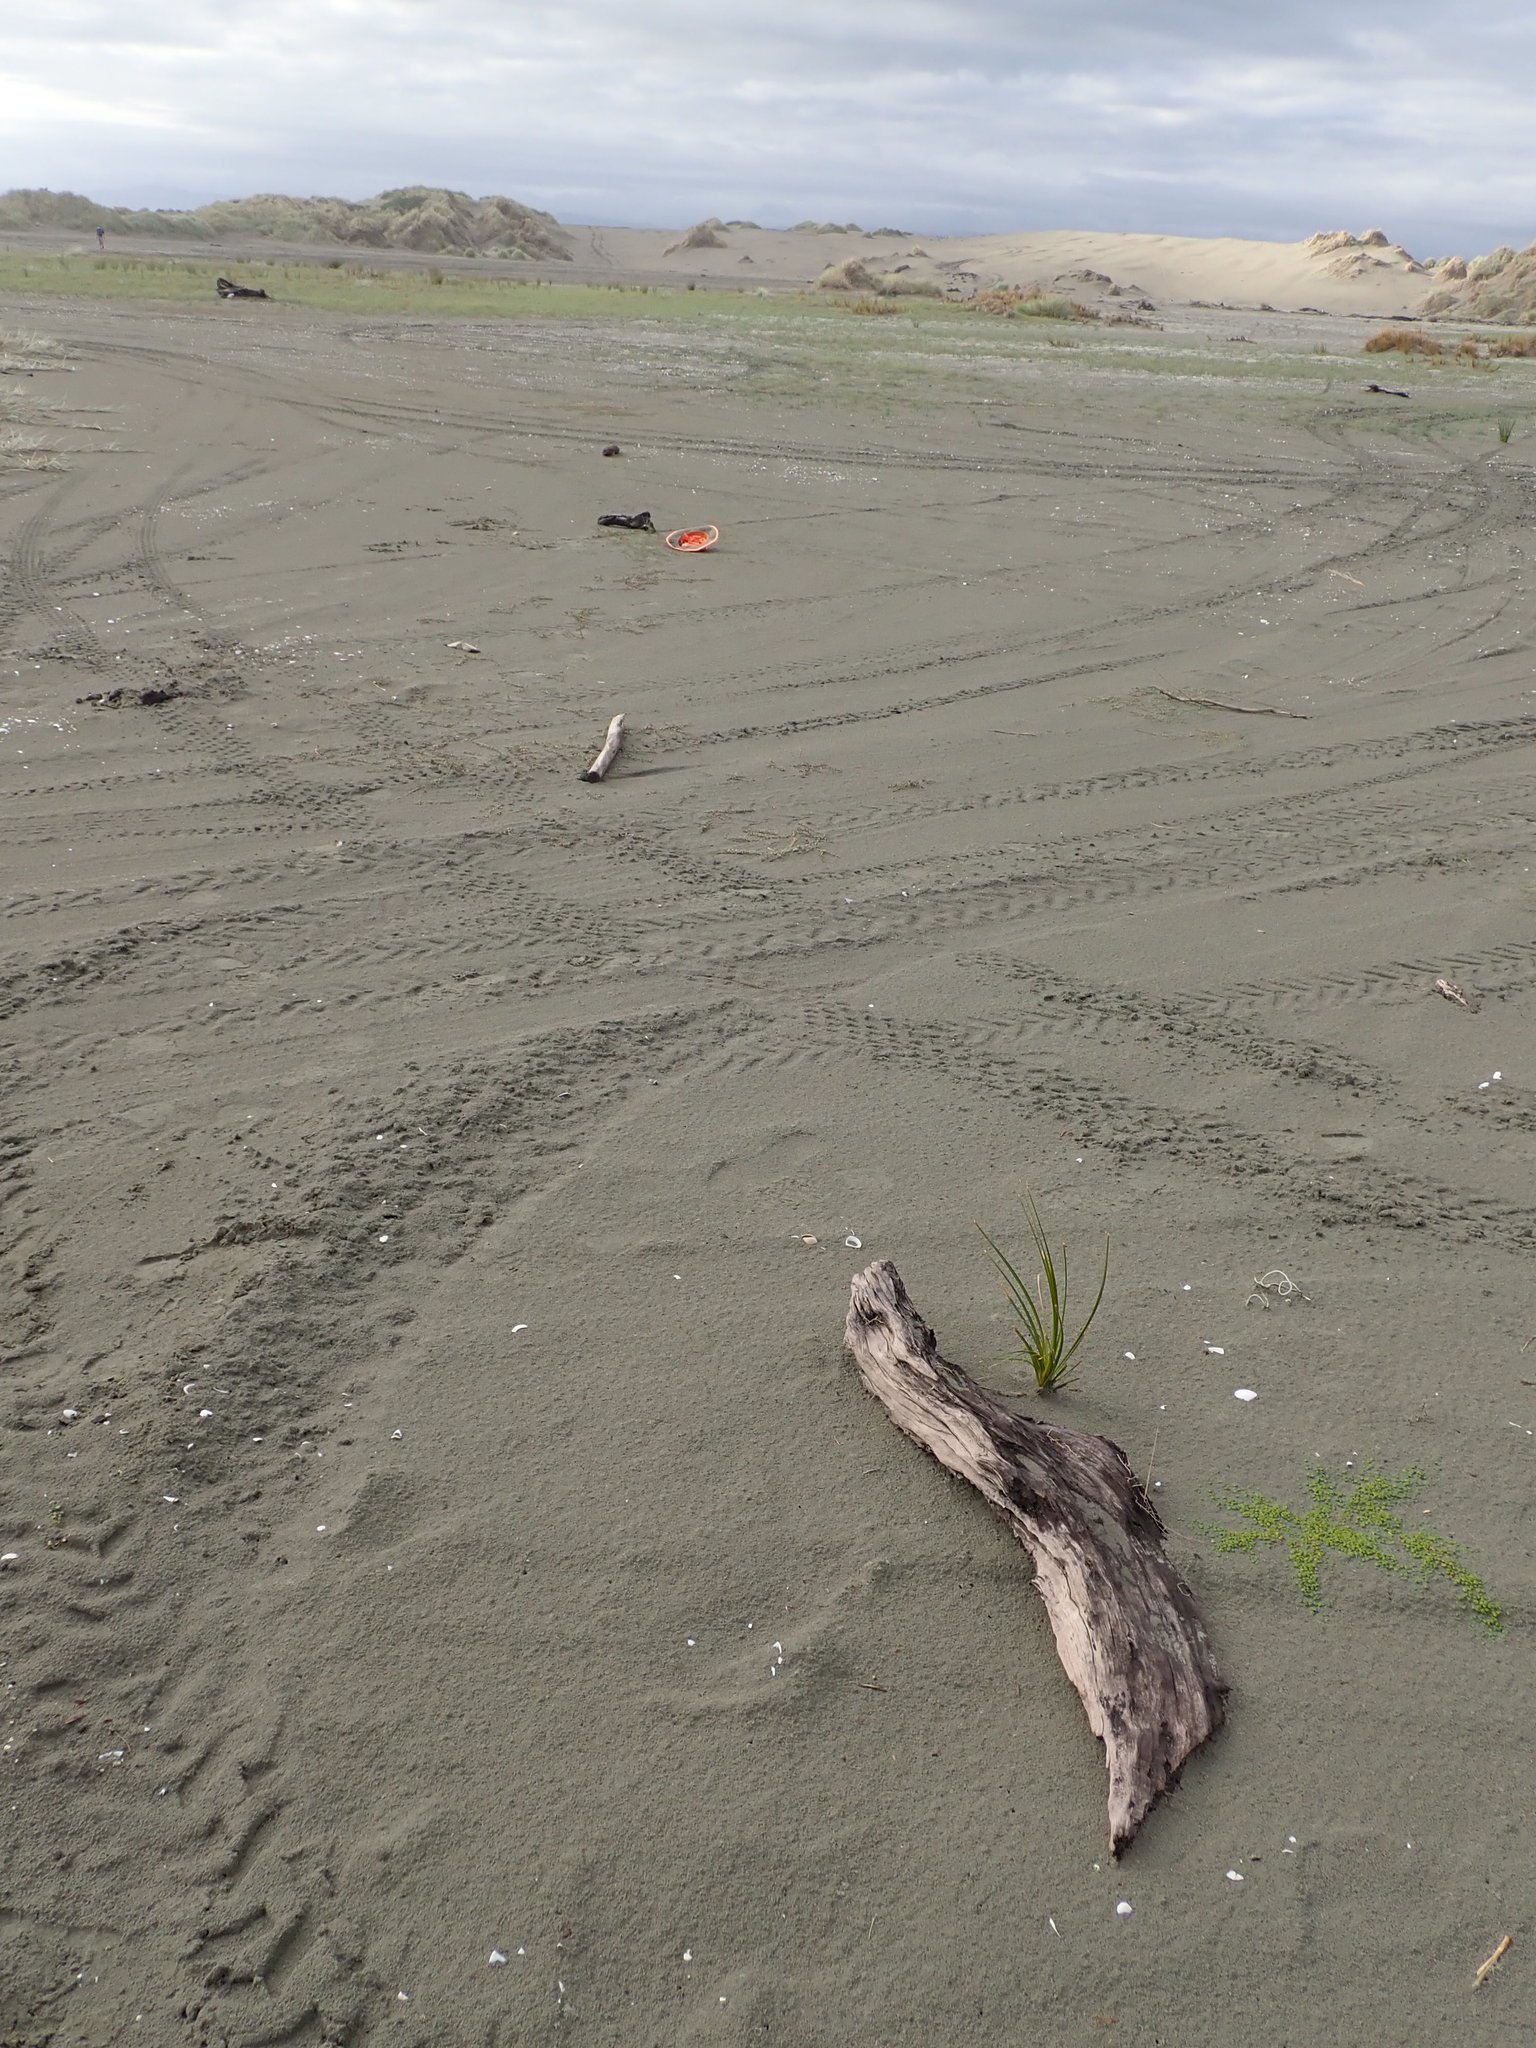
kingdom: Plantae
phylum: Tracheophyta
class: Liliopsida
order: Alismatales
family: Juncaginaceae
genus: Triglochin
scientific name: Triglochin striata
